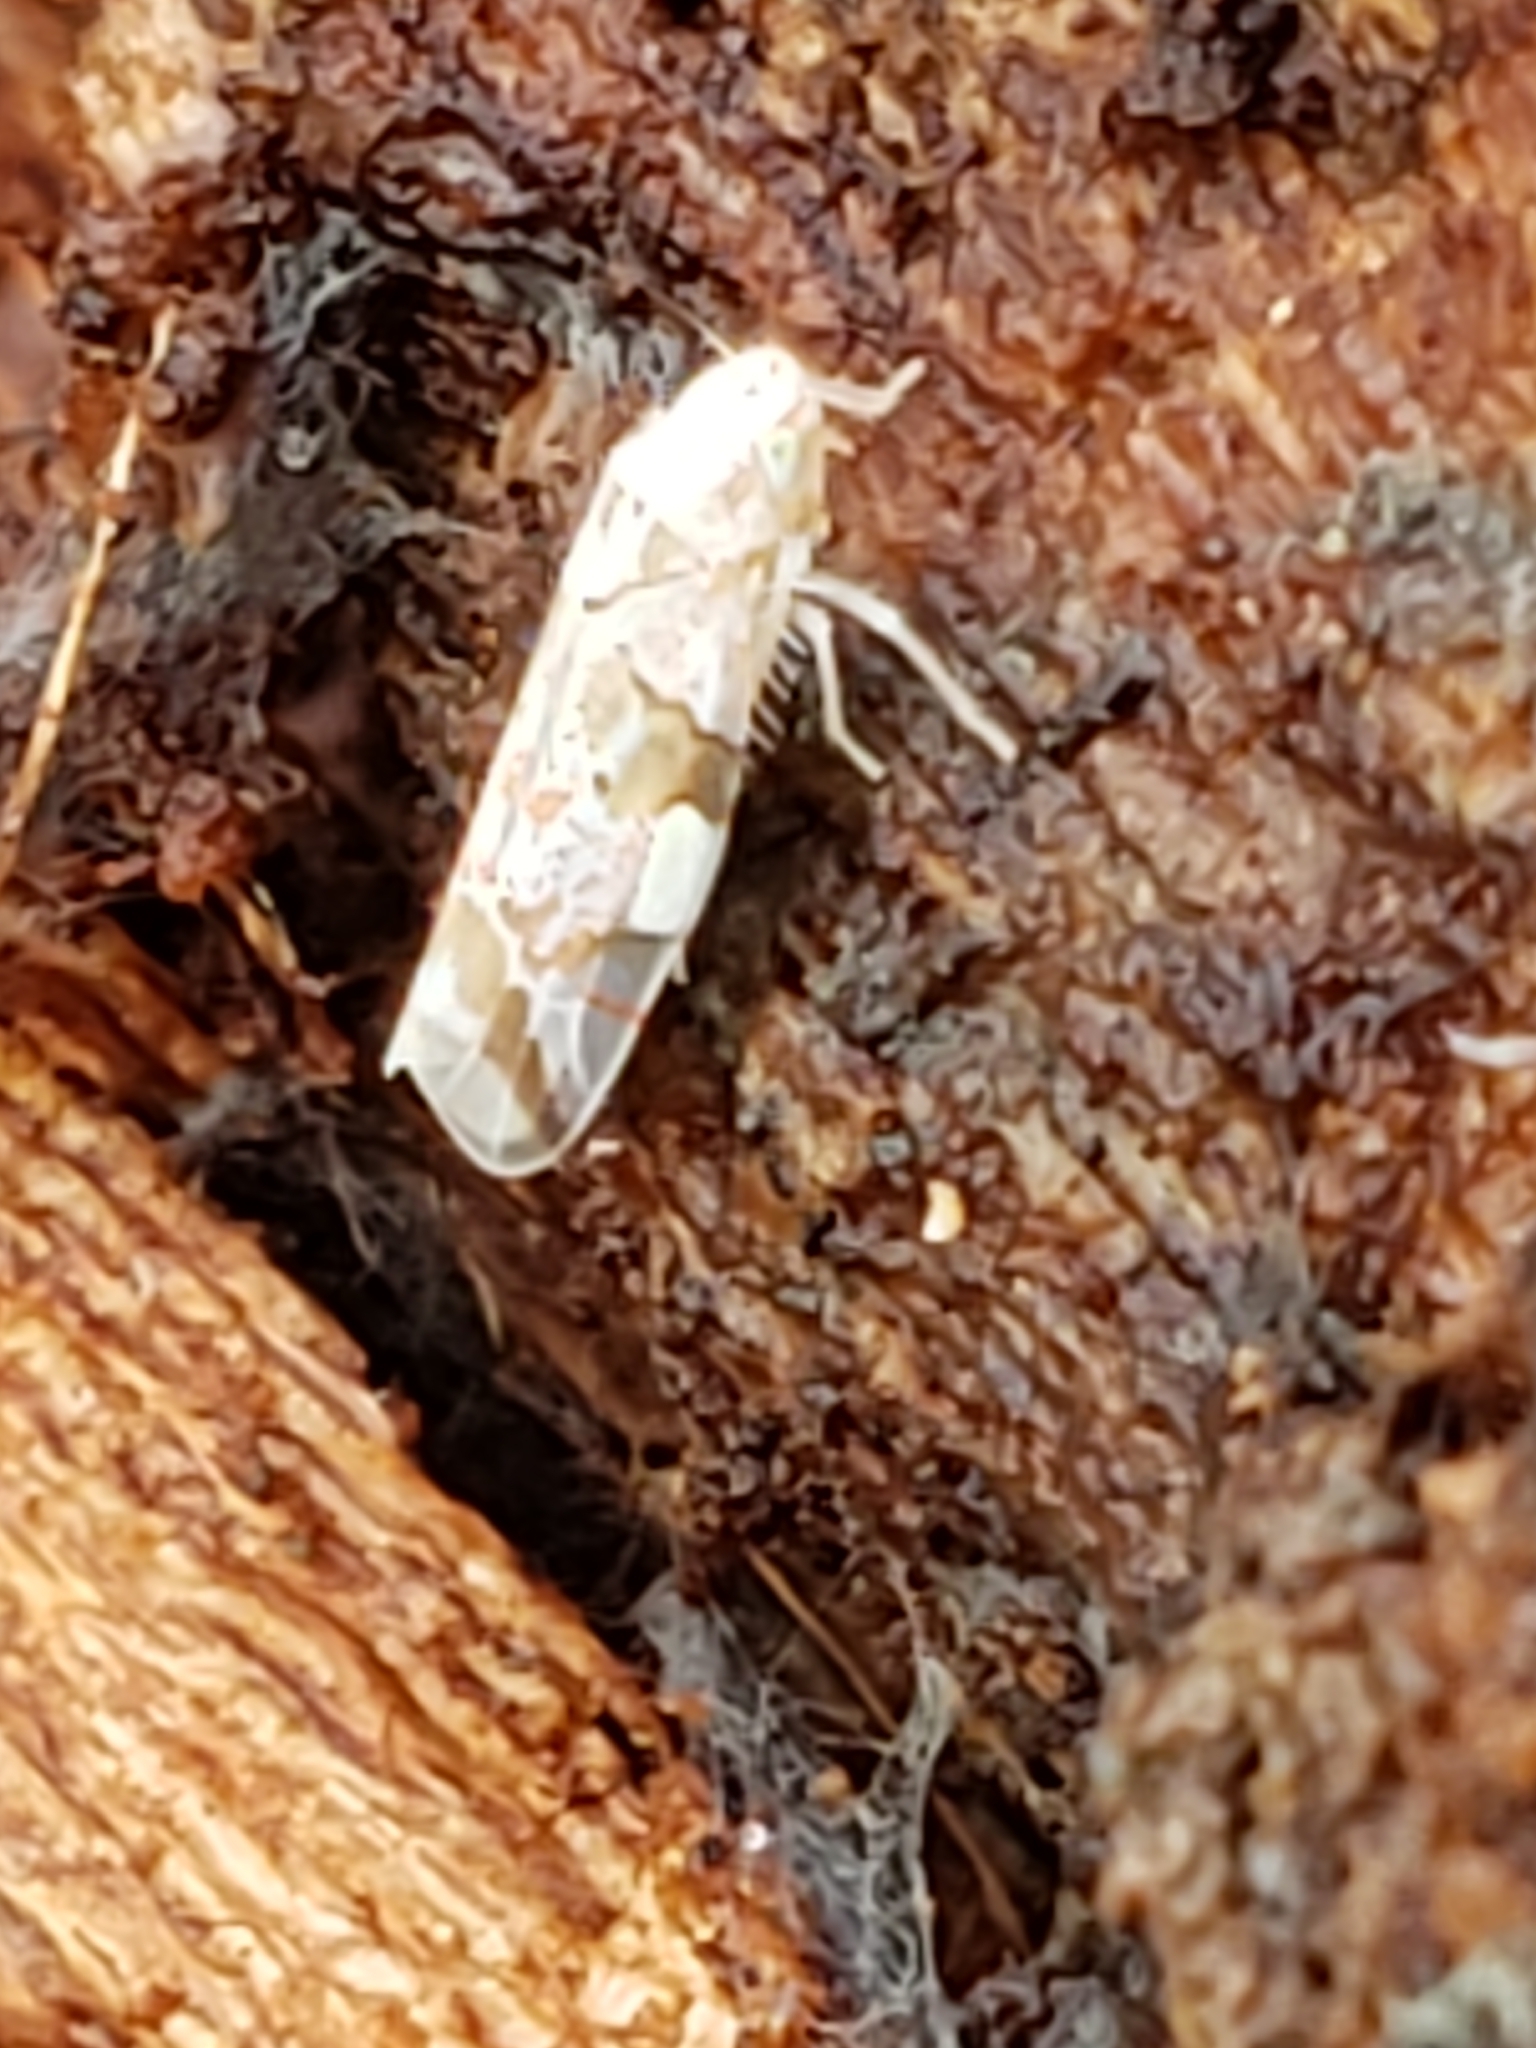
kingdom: Animalia
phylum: Arthropoda
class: Insecta
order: Hemiptera
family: Cicadellidae
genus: Hymetta
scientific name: Hymetta balteata
